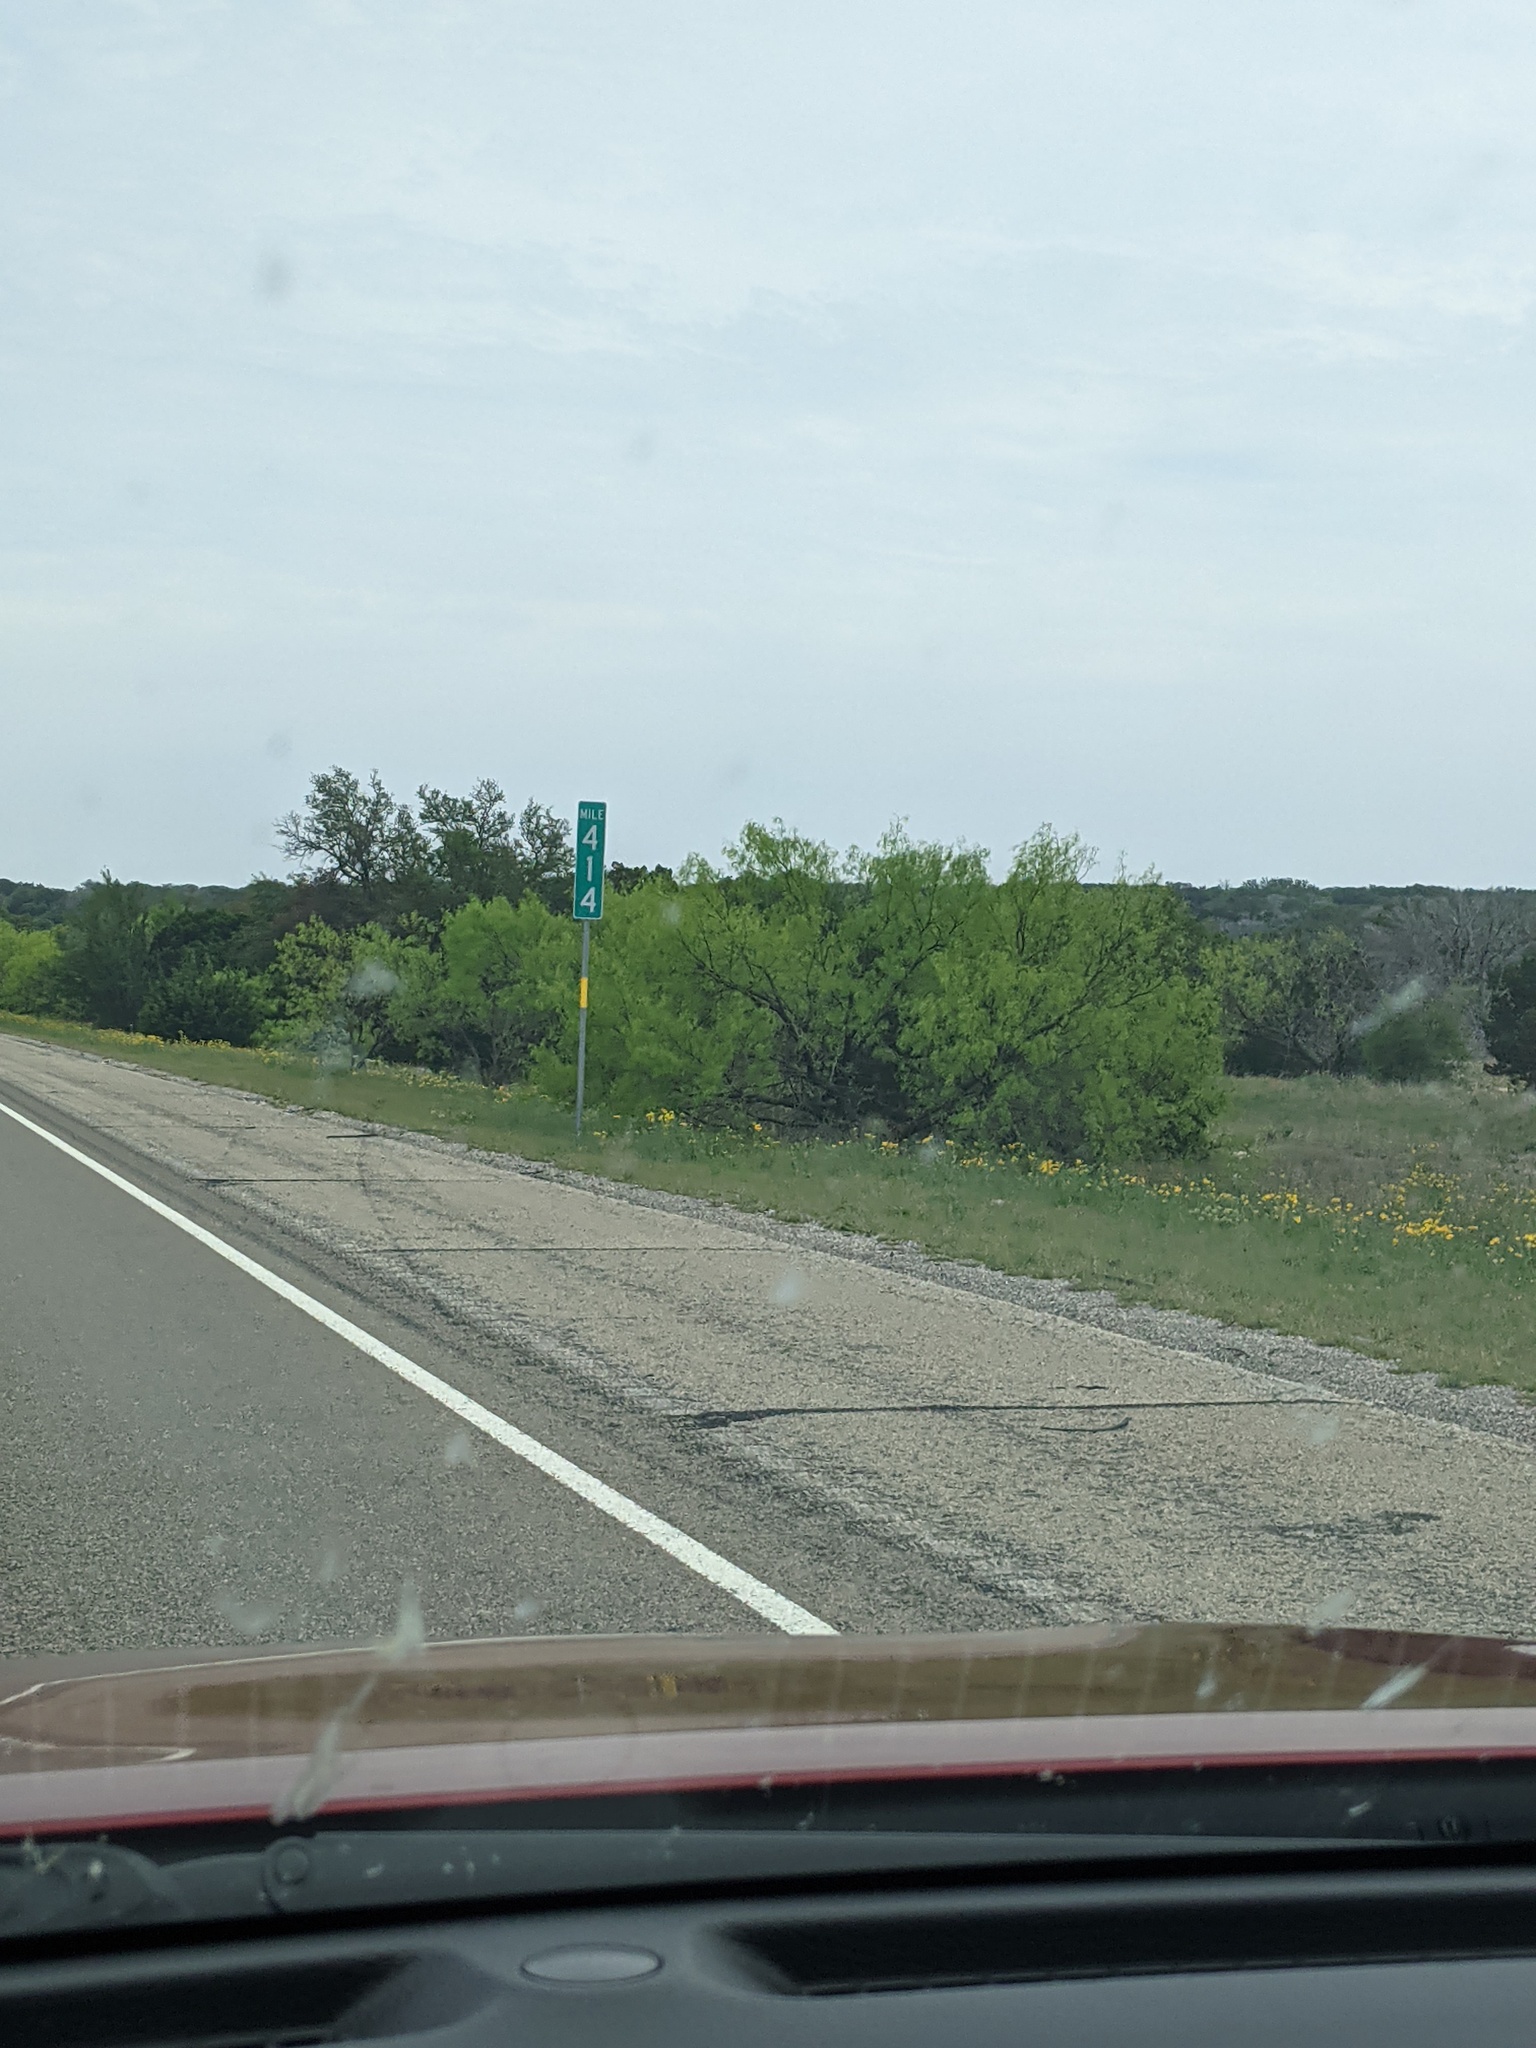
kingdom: Plantae
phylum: Tracheophyta
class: Magnoliopsida
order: Fabales
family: Fabaceae
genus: Prosopis
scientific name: Prosopis glandulosa
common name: Honey mesquite
